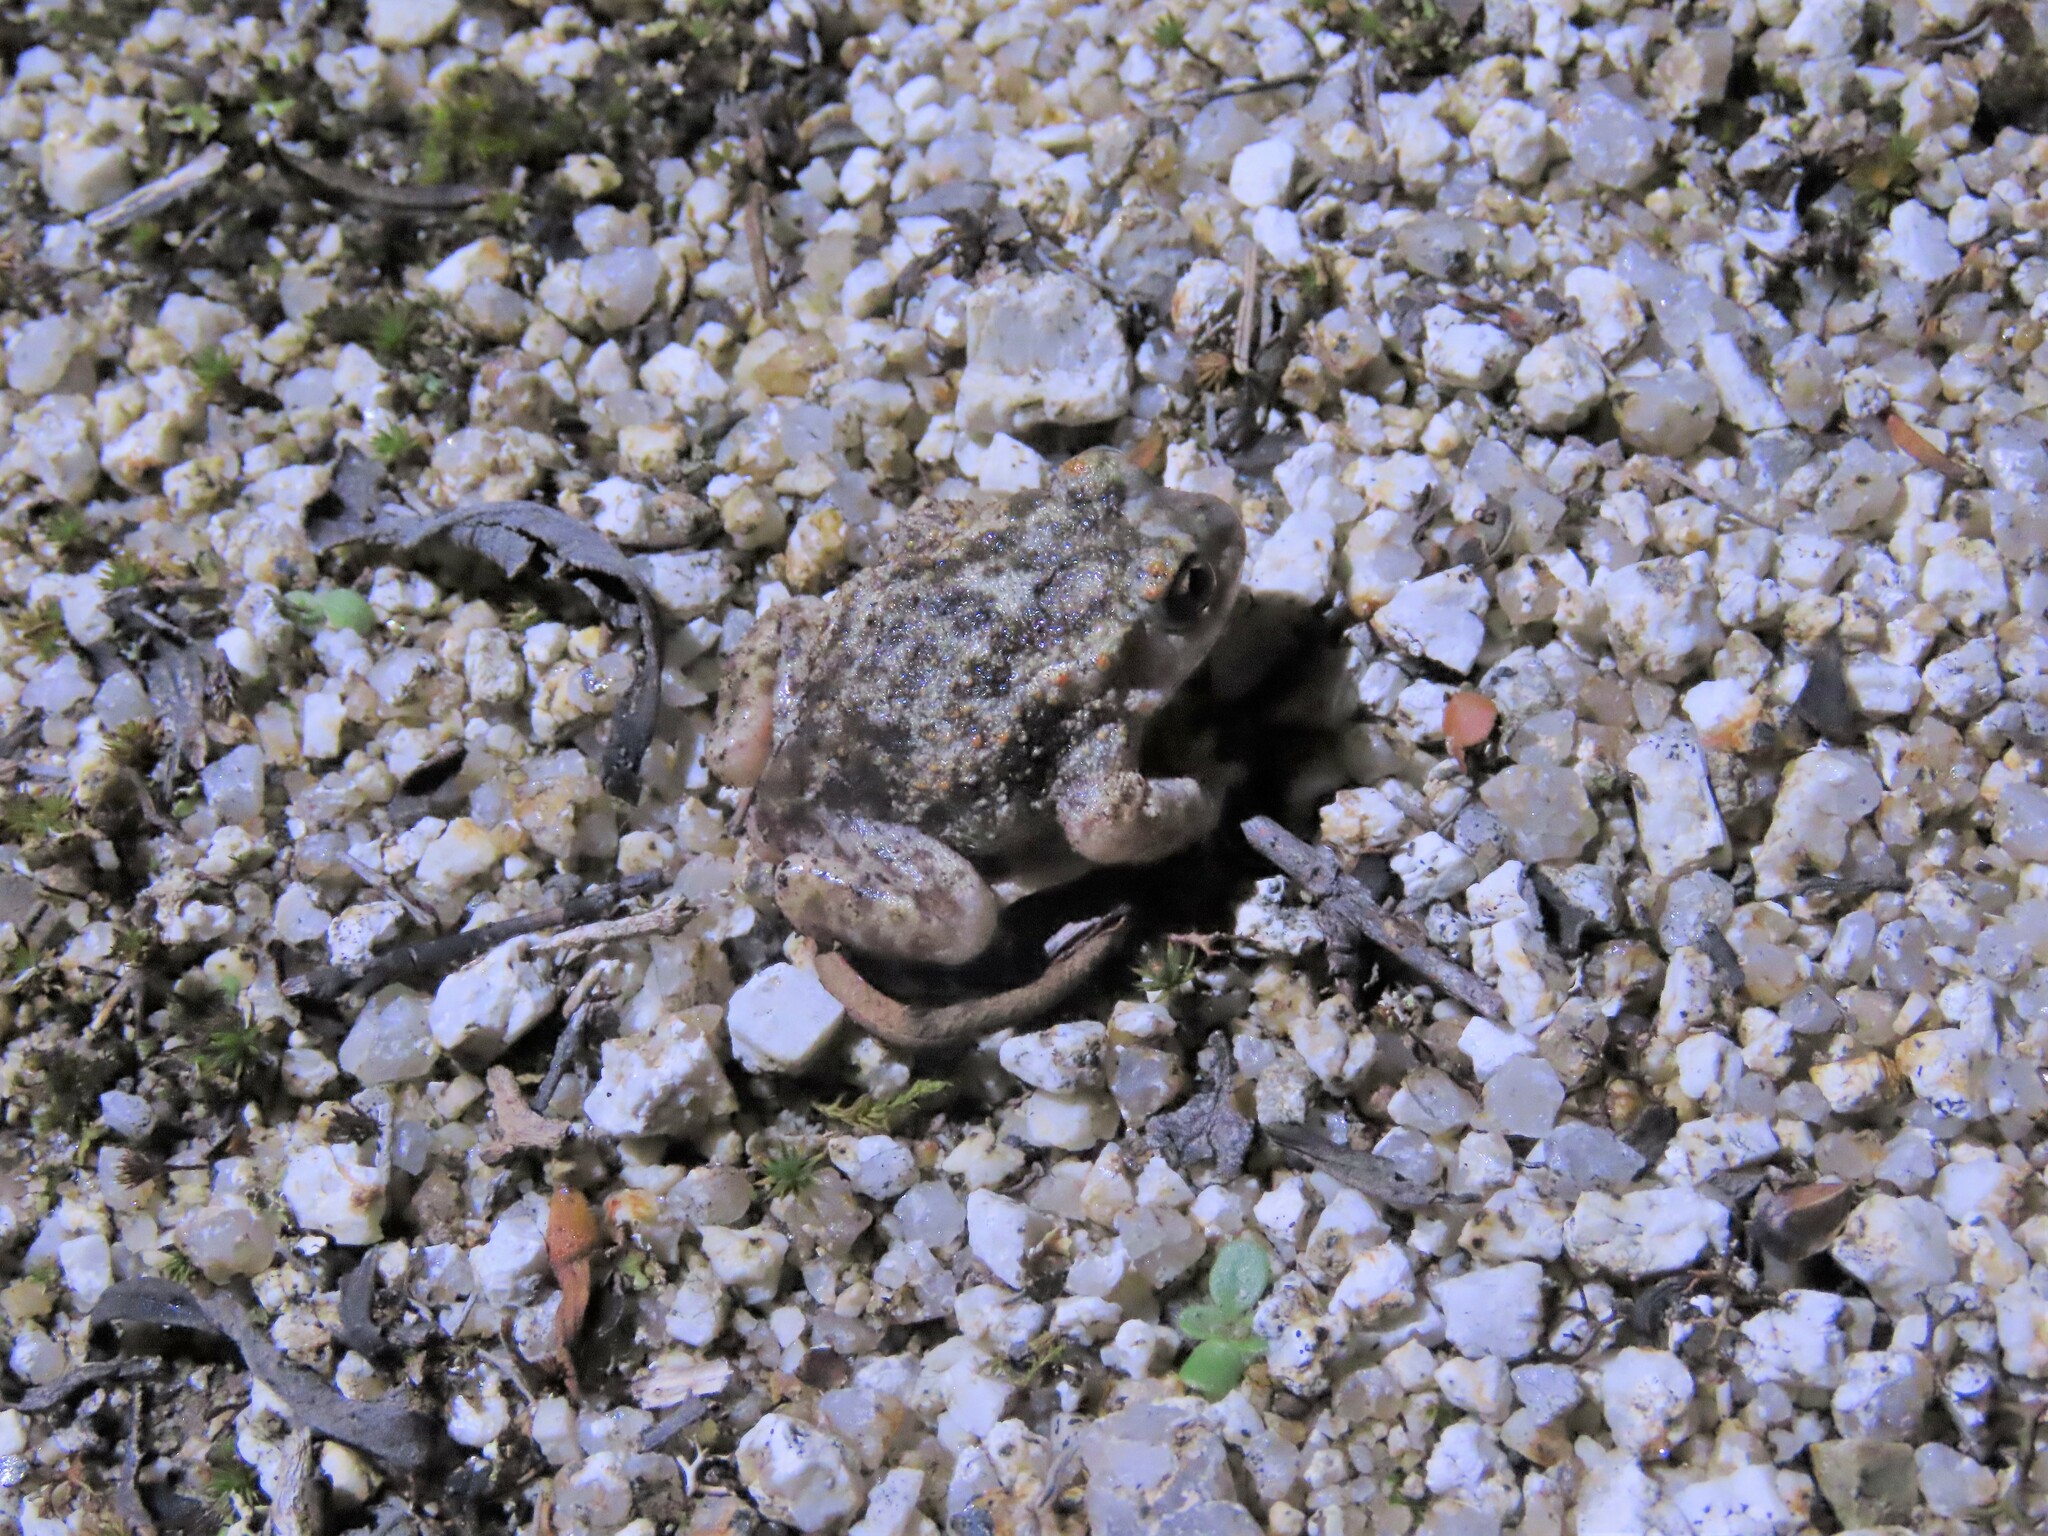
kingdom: Animalia
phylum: Chordata
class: Amphibia
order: Anura
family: Alytidae
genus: Alytes
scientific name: Alytes cisternasii
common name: Iberian midwife toad
